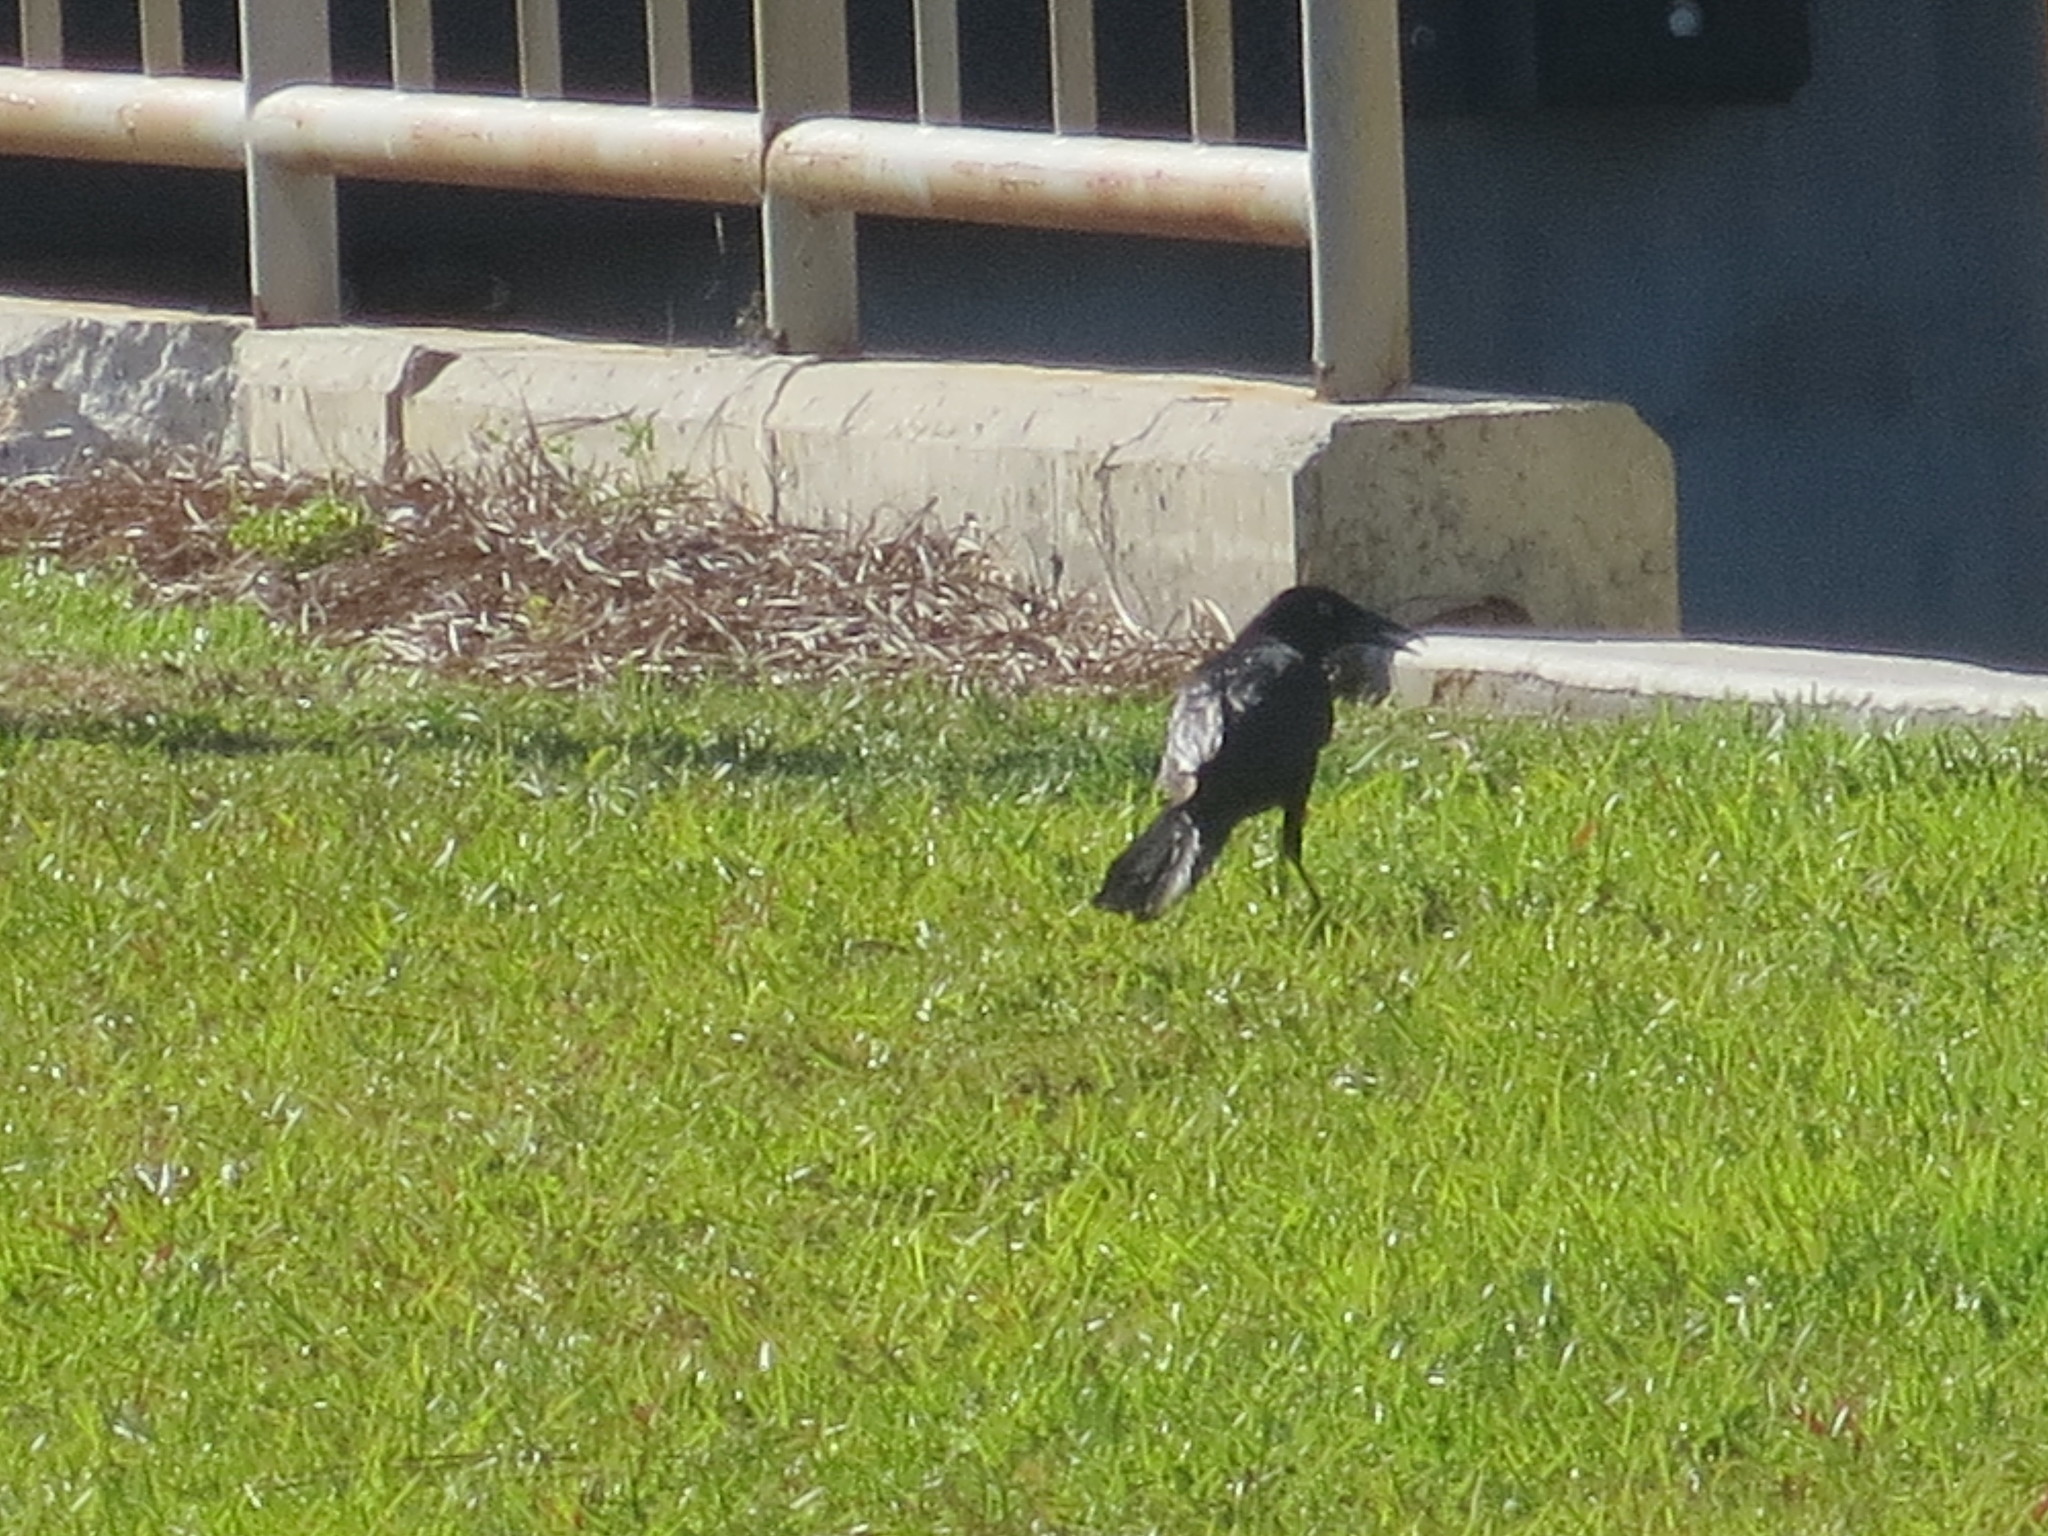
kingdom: Animalia
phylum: Chordata
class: Aves
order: Passeriformes
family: Icteridae
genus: Quiscalus
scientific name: Quiscalus major
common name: Boat-tailed grackle
